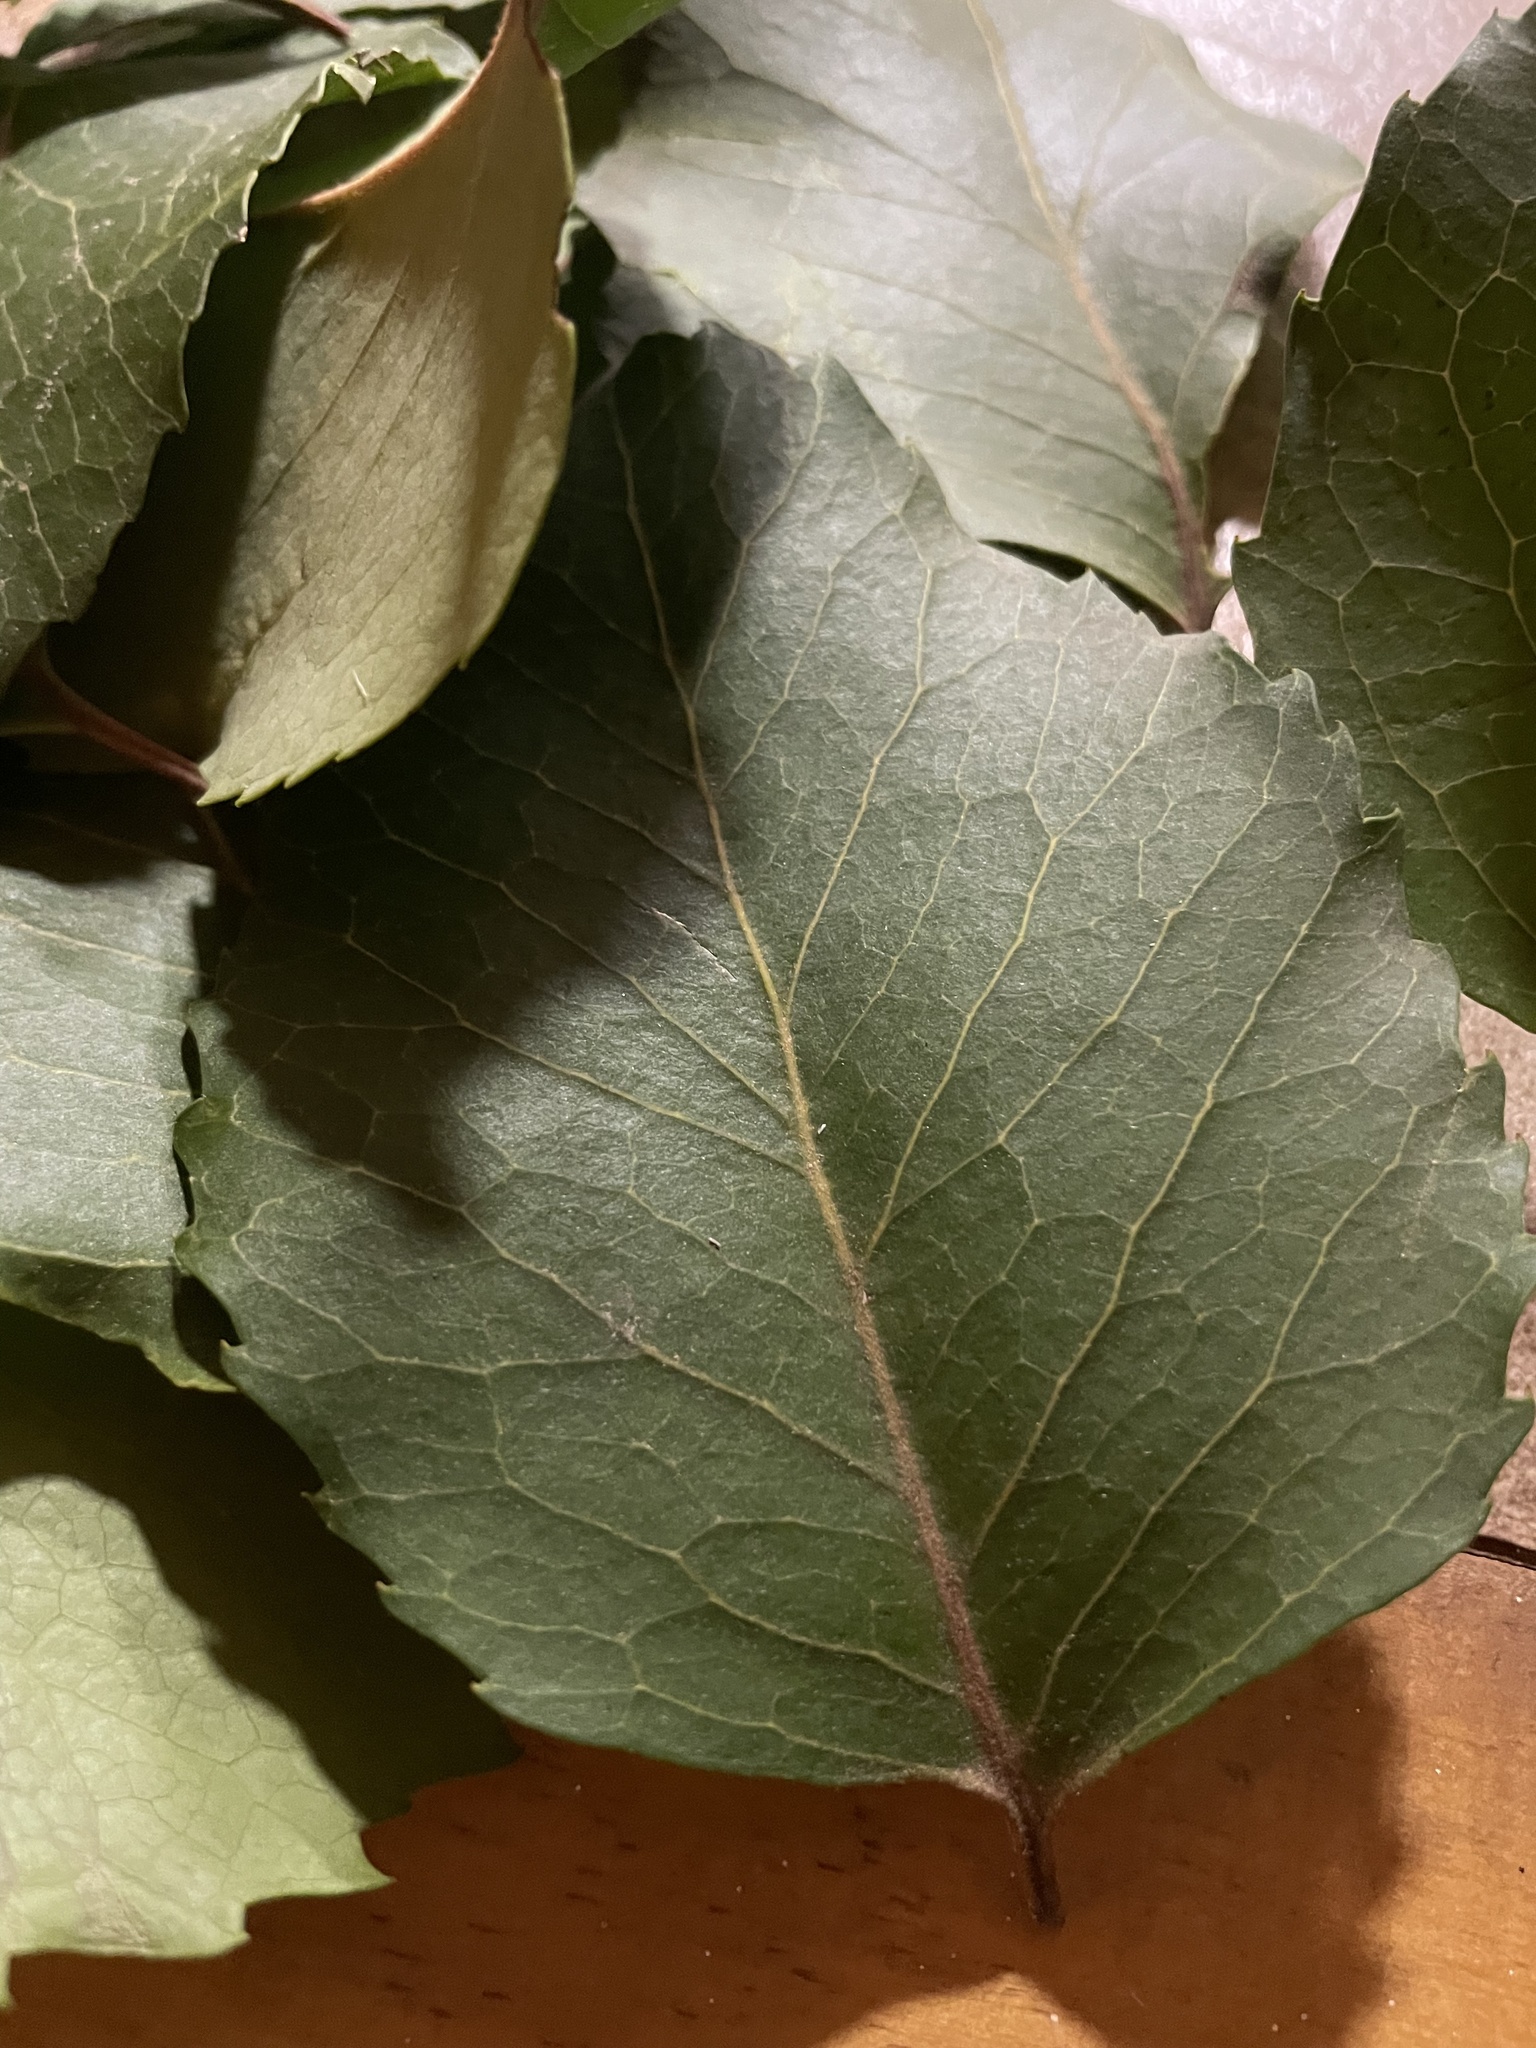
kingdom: Plantae
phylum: Tracheophyta
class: Magnoliopsida
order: Proteales
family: Proteaceae
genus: Lomatia
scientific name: Lomatia hirsuta
